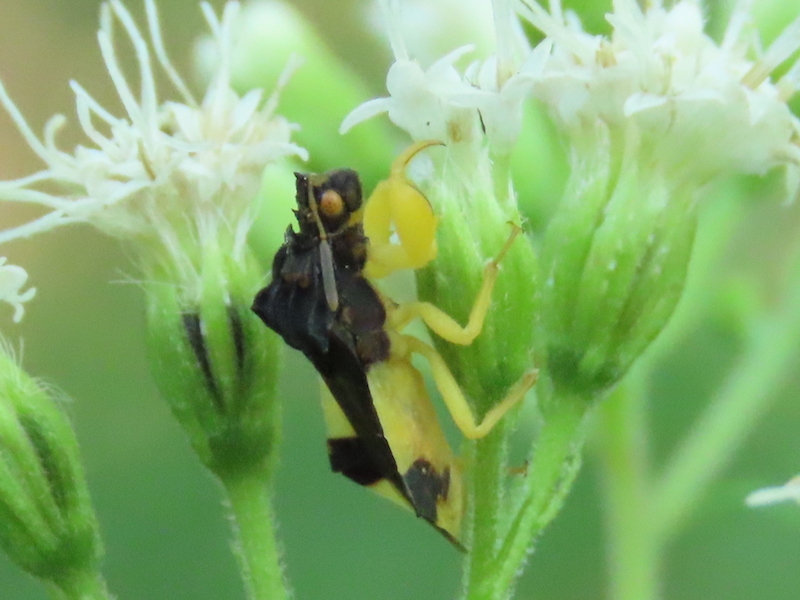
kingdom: Animalia
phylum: Arthropoda
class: Insecta
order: Hemiptera
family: Reduviidae
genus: Phymata
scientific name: Phymata pennsylvanica
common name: Pennsylvania ambush bug
